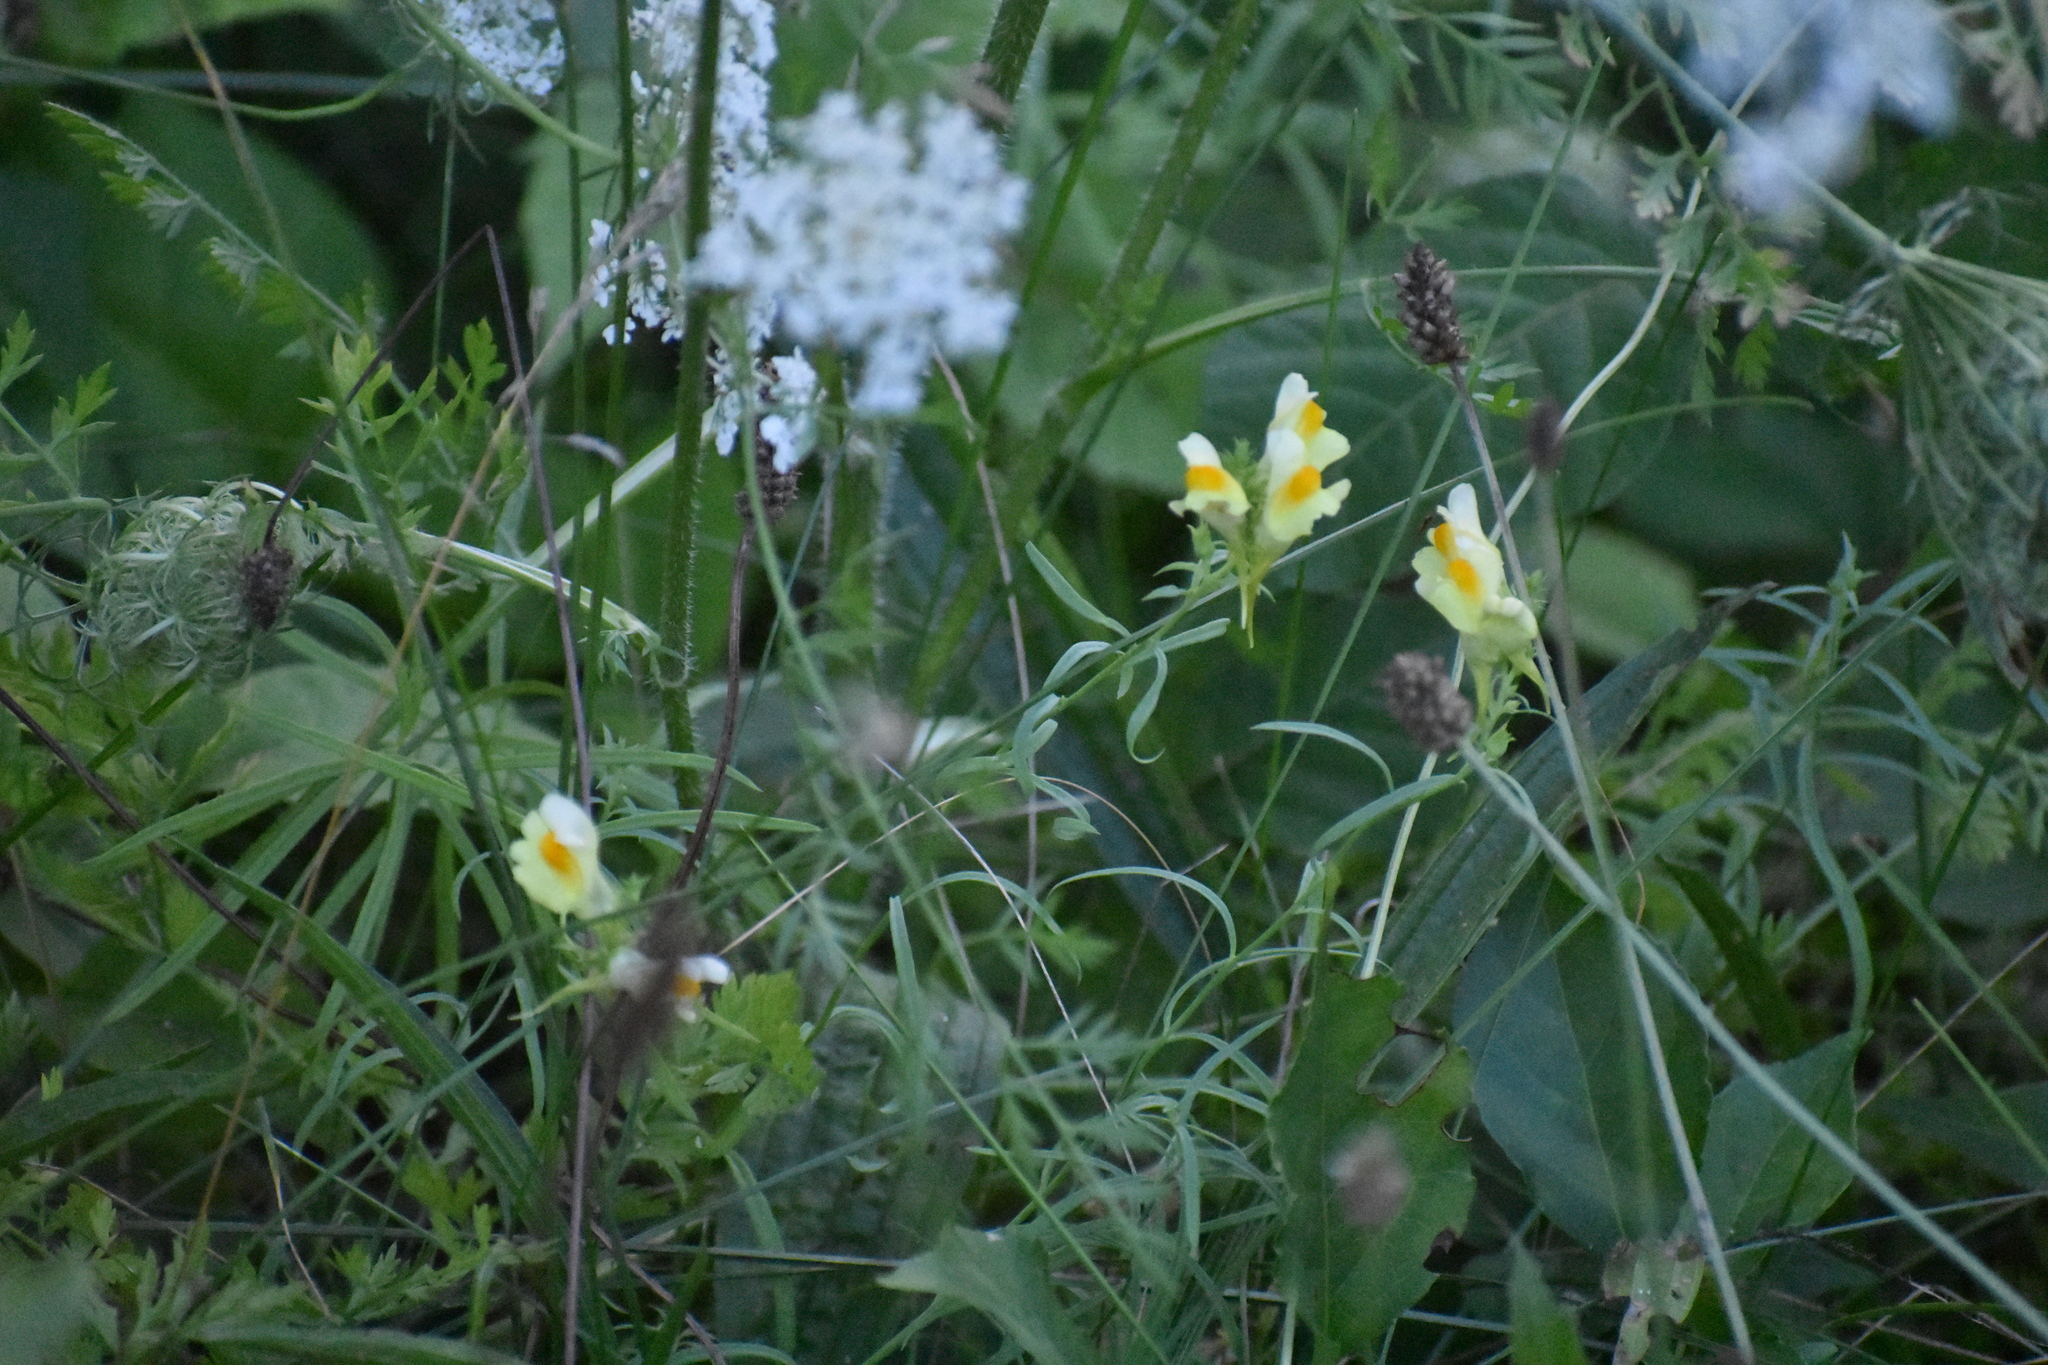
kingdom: Plantae
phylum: Tracheophyta
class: Magnoliopsida
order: Lamiales
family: Plantaginaceae
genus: Linaria
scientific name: Linaria vulgaris
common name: Butter and eggs
